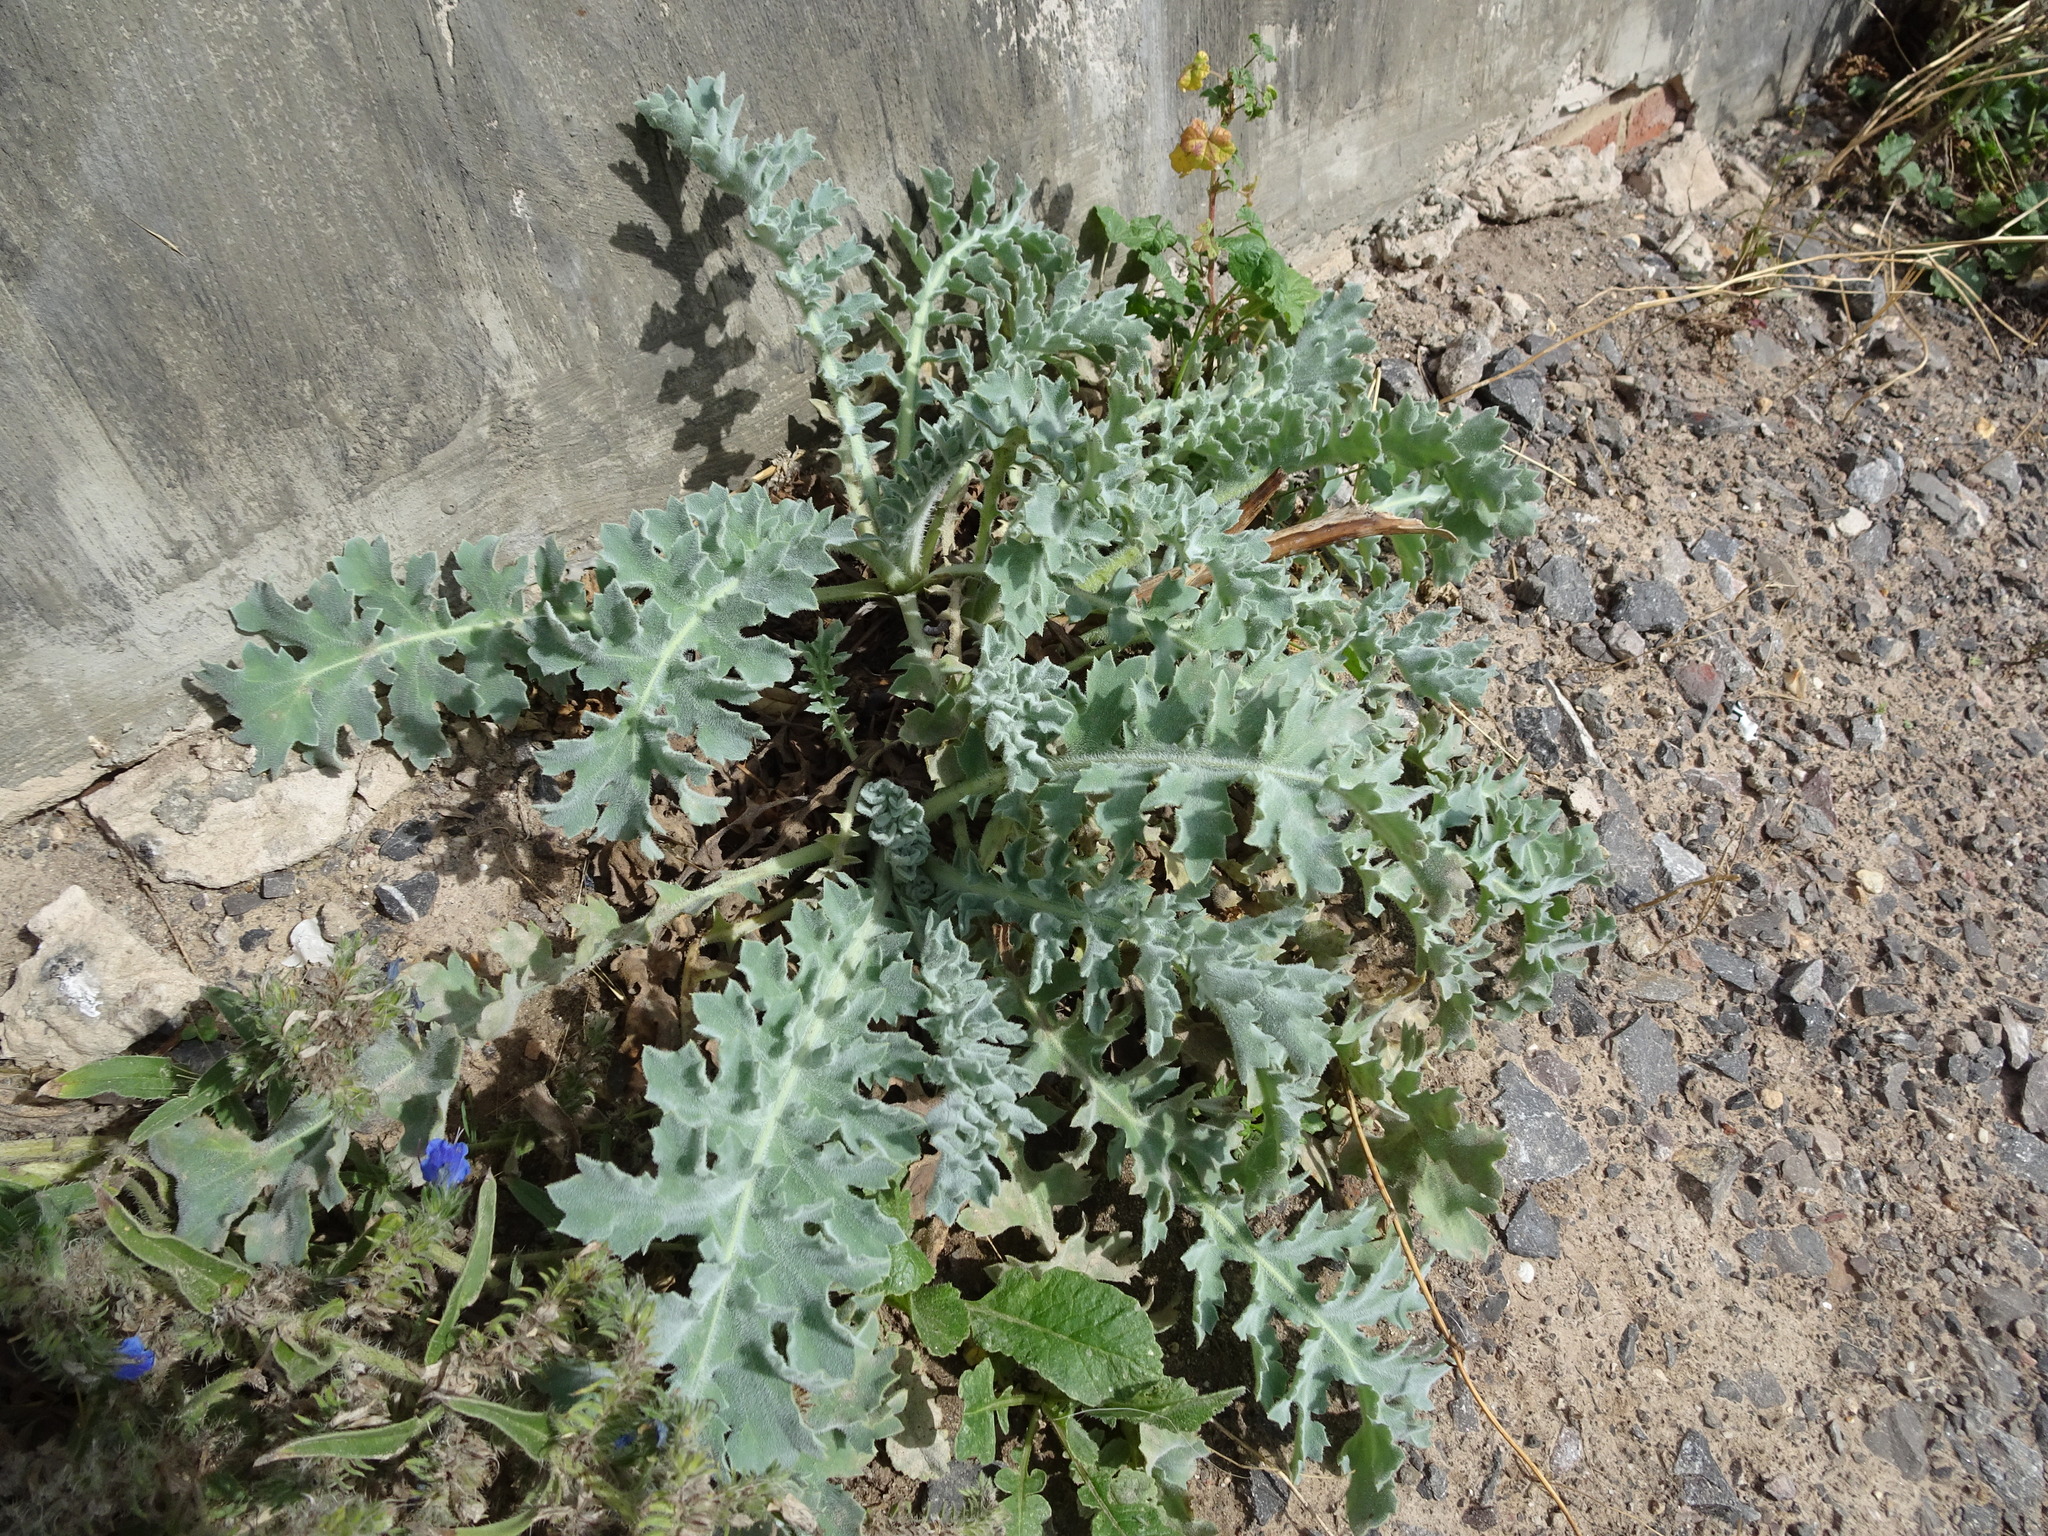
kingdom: Plantae
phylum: Tracheophyta
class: Magnoliopsida
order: Ranunculales
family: Papaveraceae
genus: Glaucium
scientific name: Glaucium flavum
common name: Yellow horned-poppy
